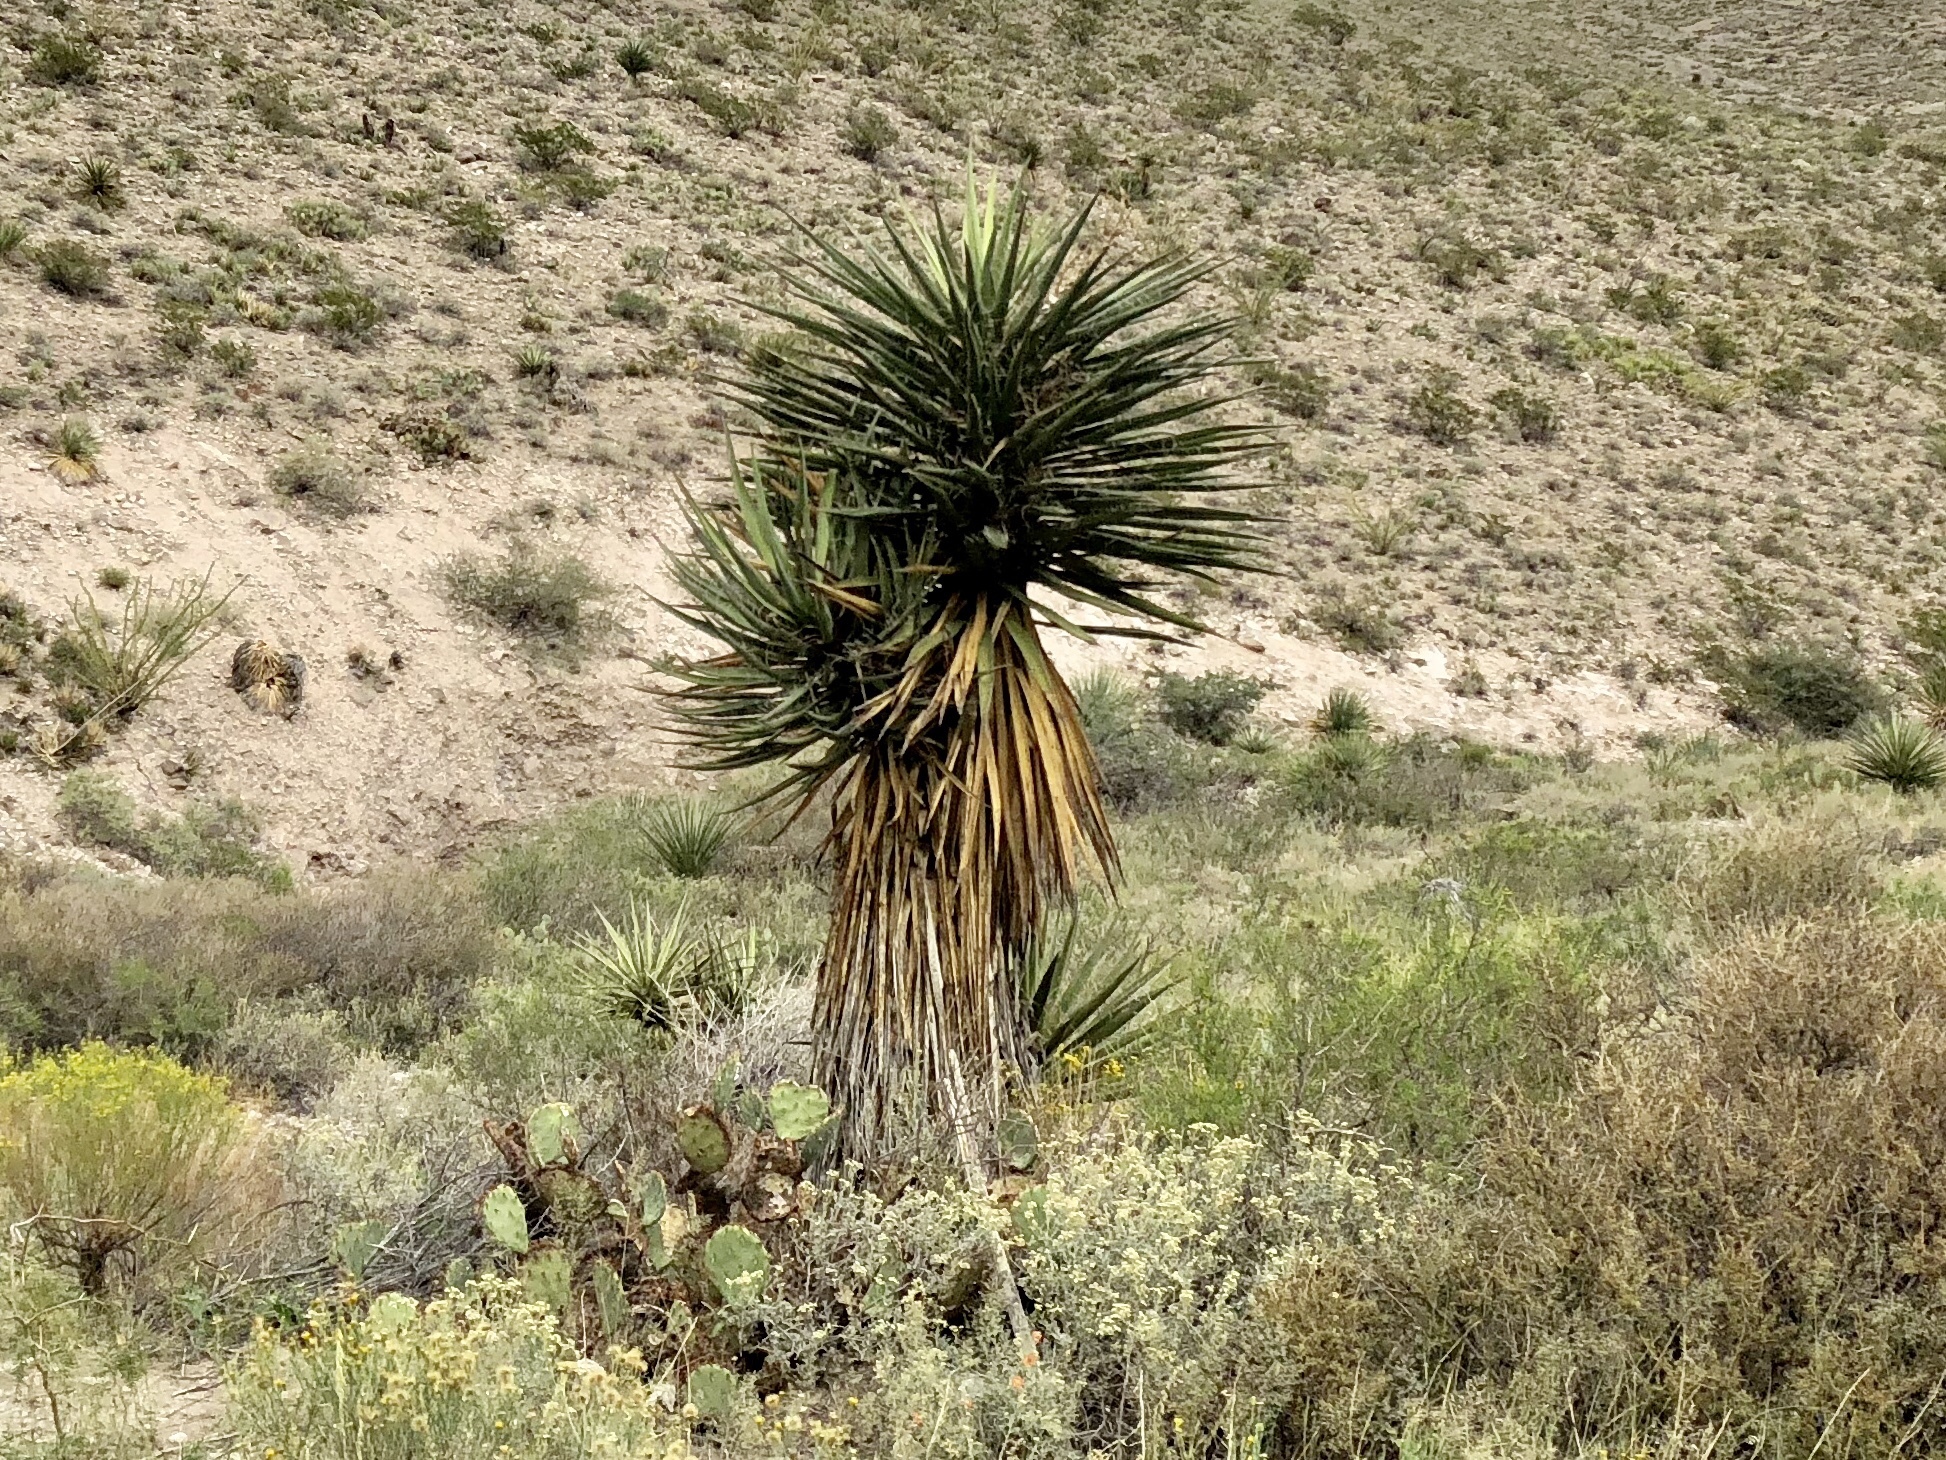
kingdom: Plantae
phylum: Tracheophyta
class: Liliopsida
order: Asparagales
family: Asparagaceae
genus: Yucca
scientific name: Yucca treculiana
